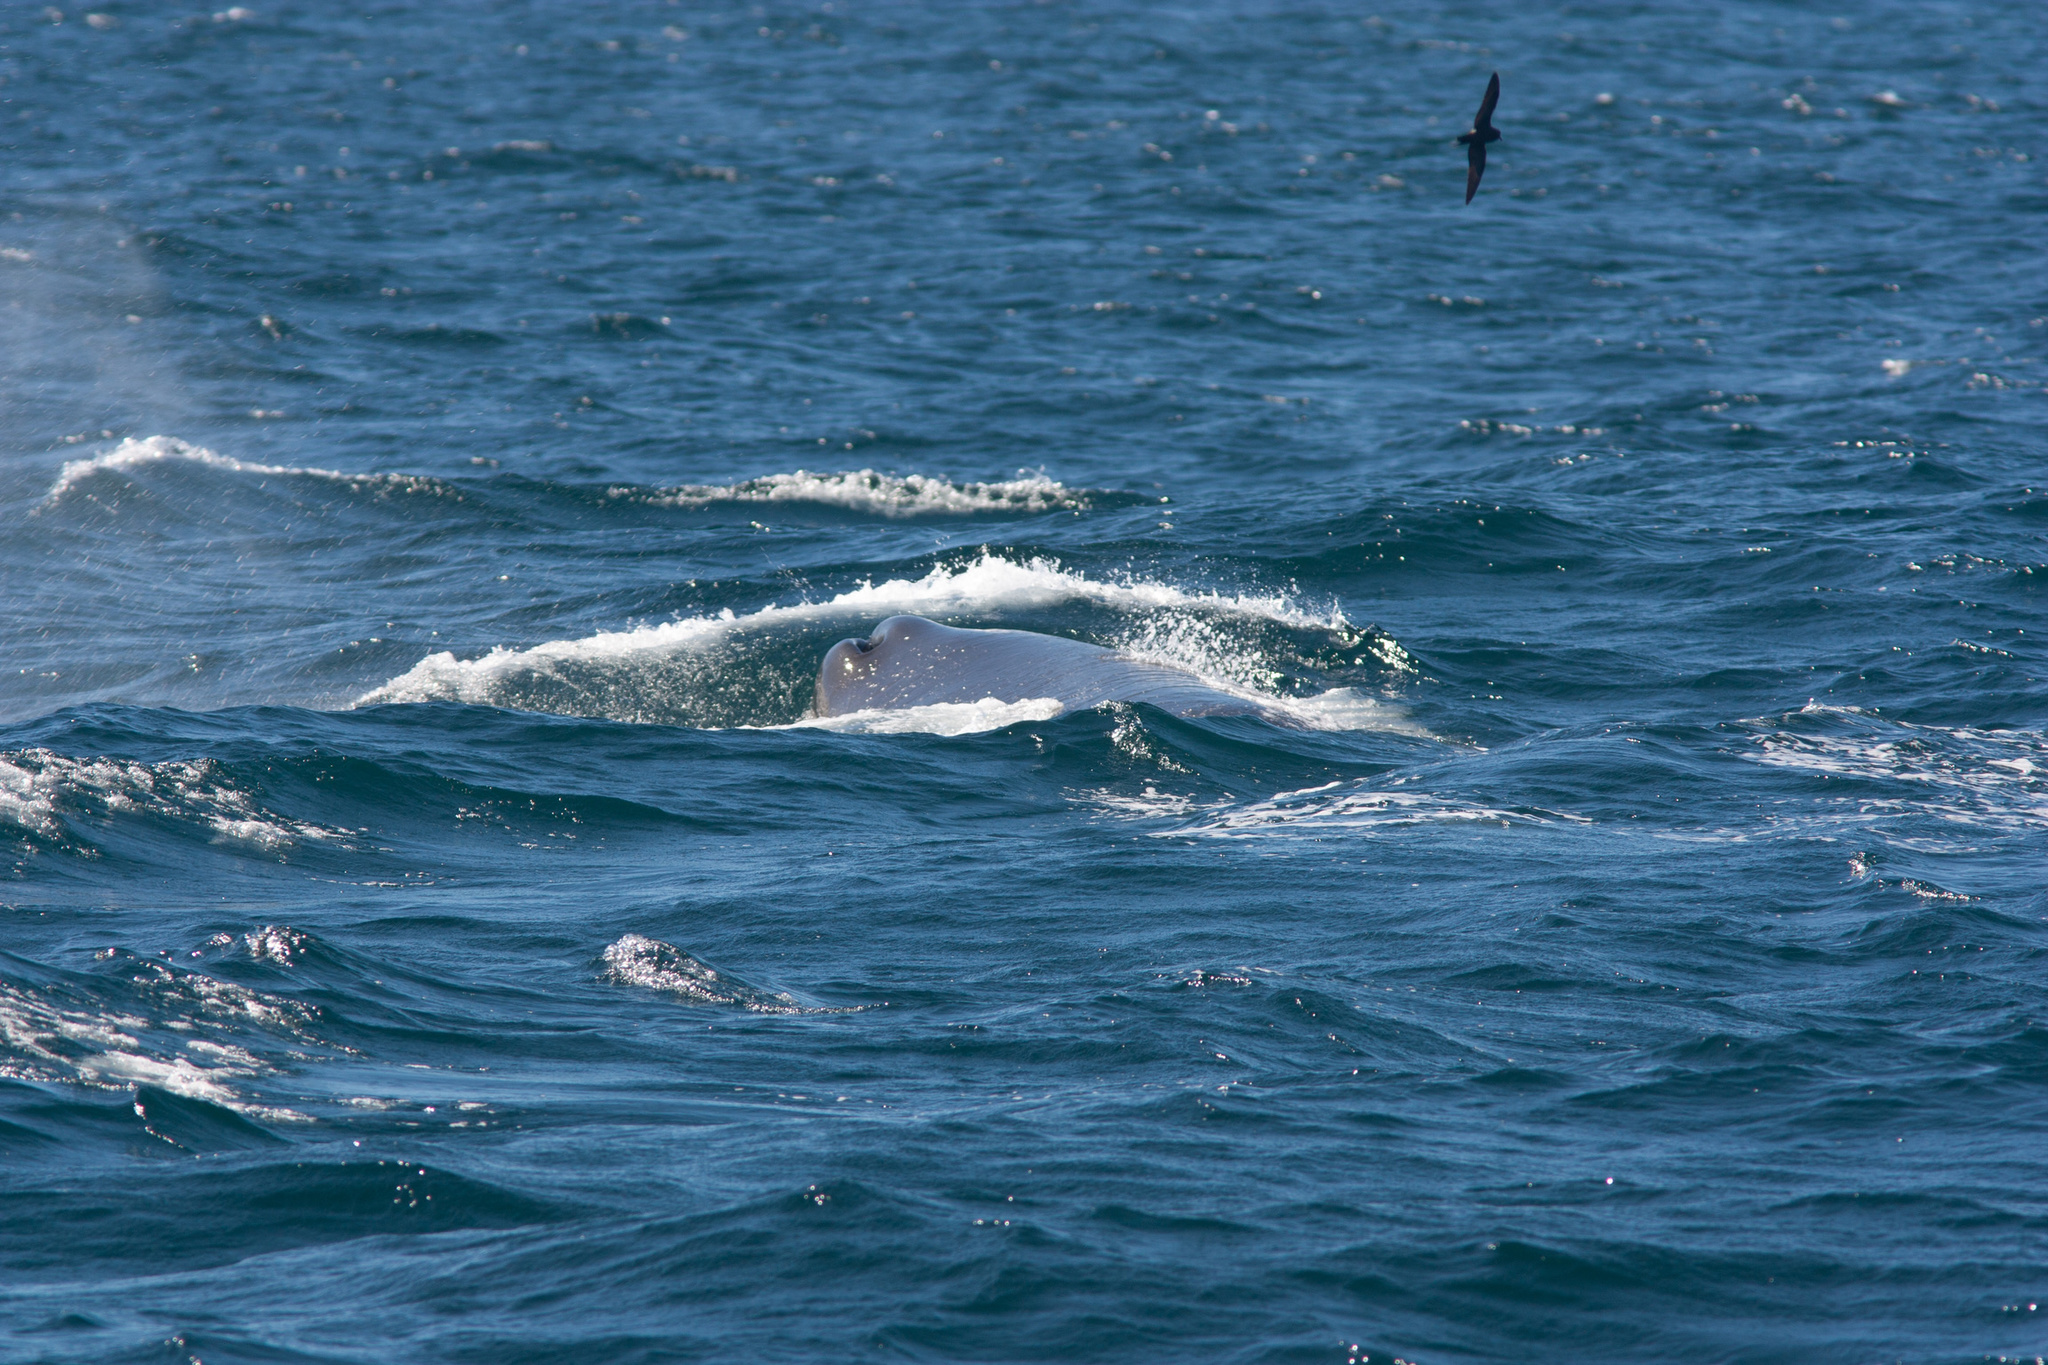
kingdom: Animalia
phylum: Chordata
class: Mammalia
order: Cetacea
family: Physeteridae
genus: Physeter
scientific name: Physeter macrocephalus
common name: Sperm whale
